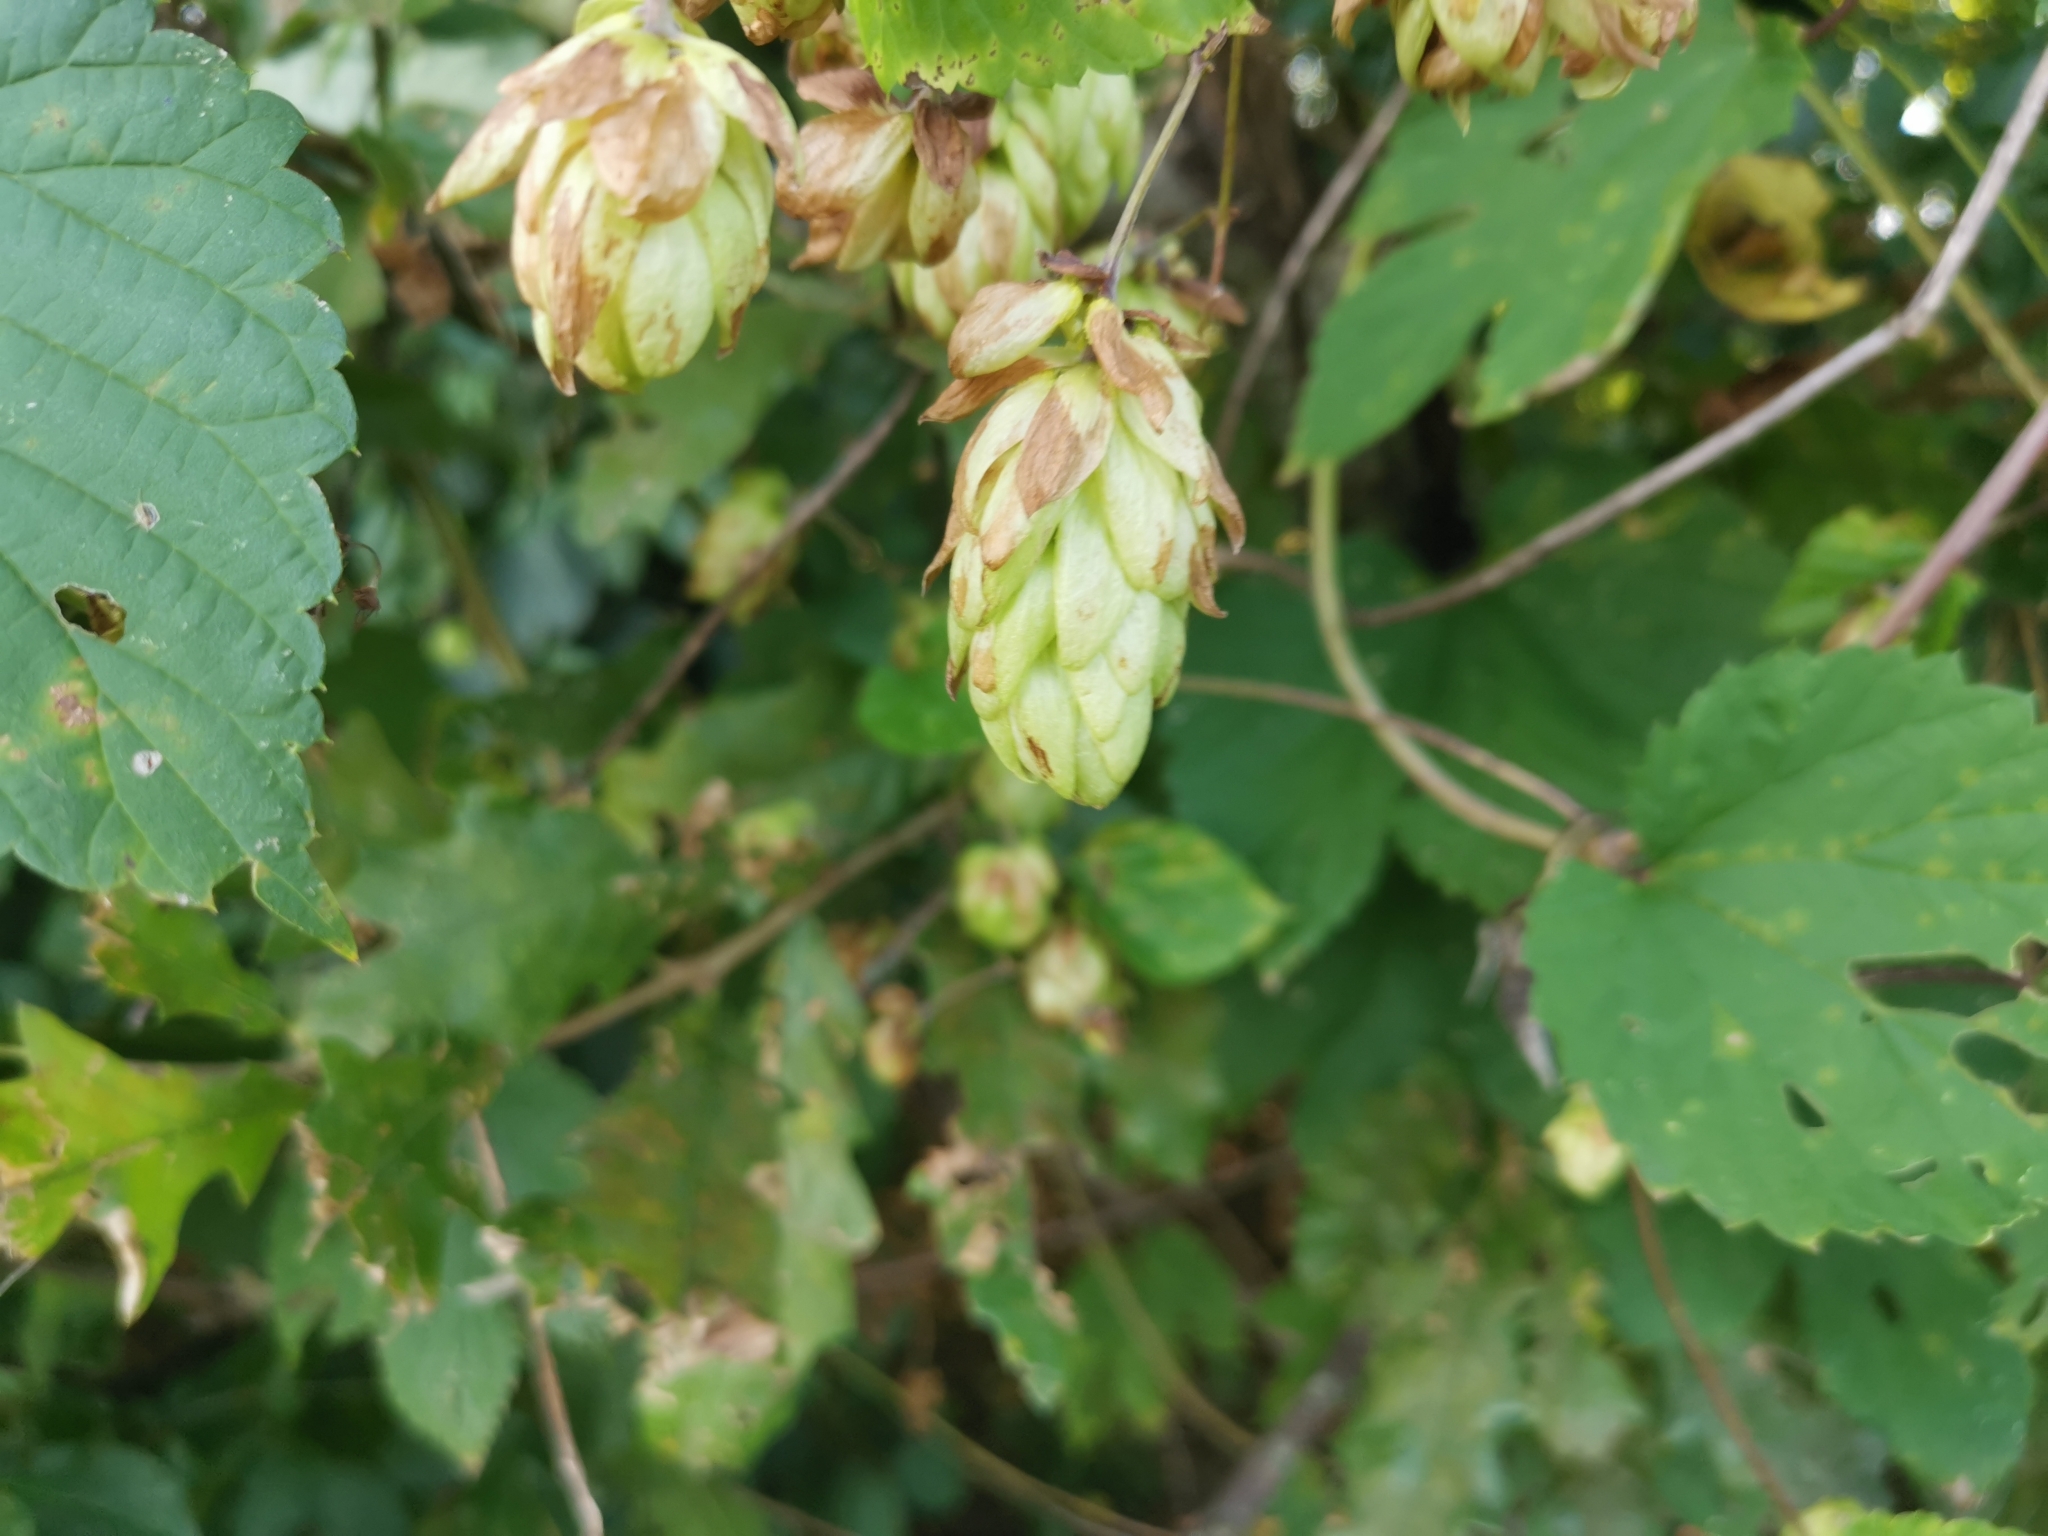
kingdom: Plantae
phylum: Tracheophyta
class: Magnoliopsida
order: Rosales
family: Cannabaceae
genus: Humulus
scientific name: Humulus lupulus
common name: Hop
